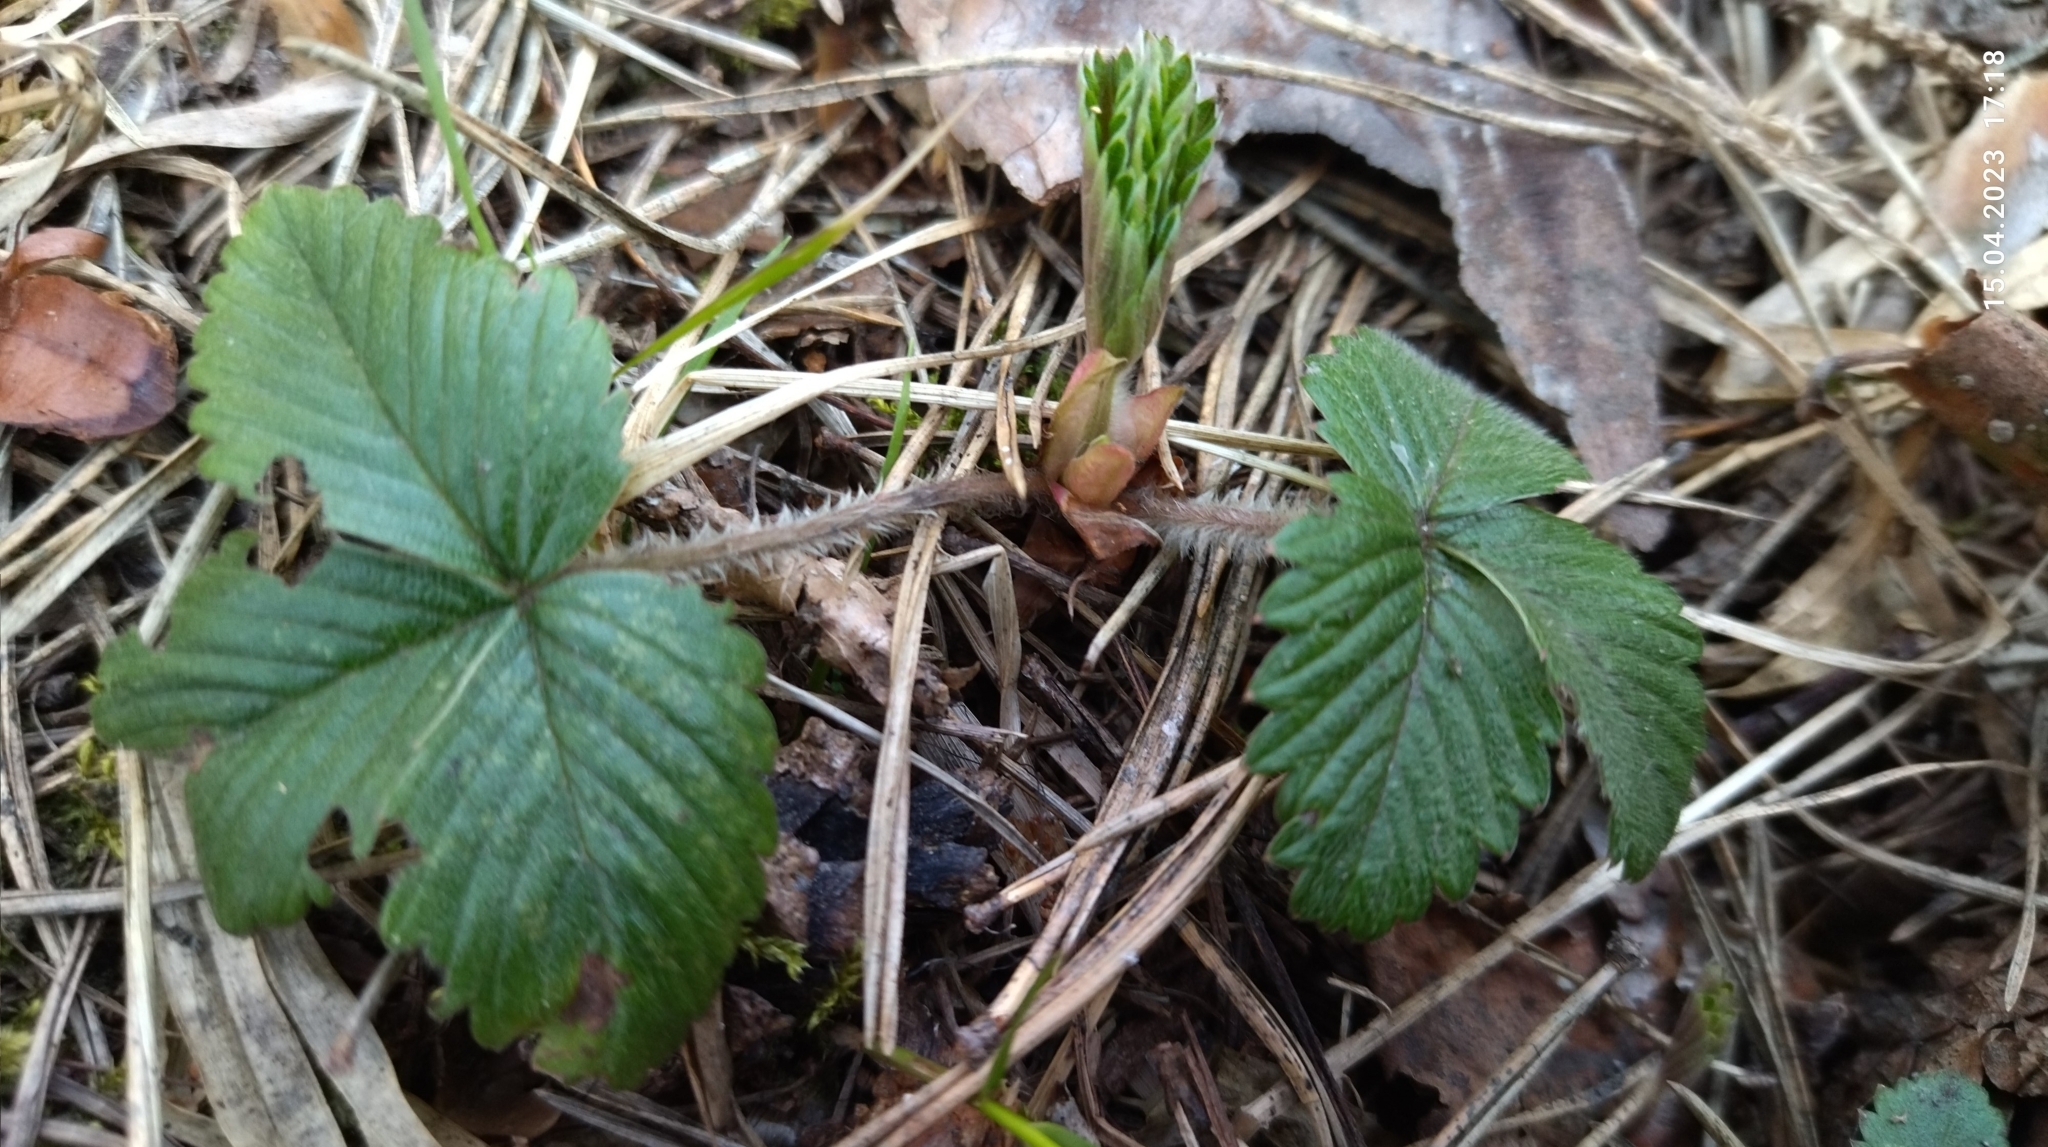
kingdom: Plantae
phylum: Tracheophyta
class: Magnoliopsida
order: Rosales
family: Rosaceae
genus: Fragaria
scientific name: Fragaria vesca
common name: Wild strawberry
